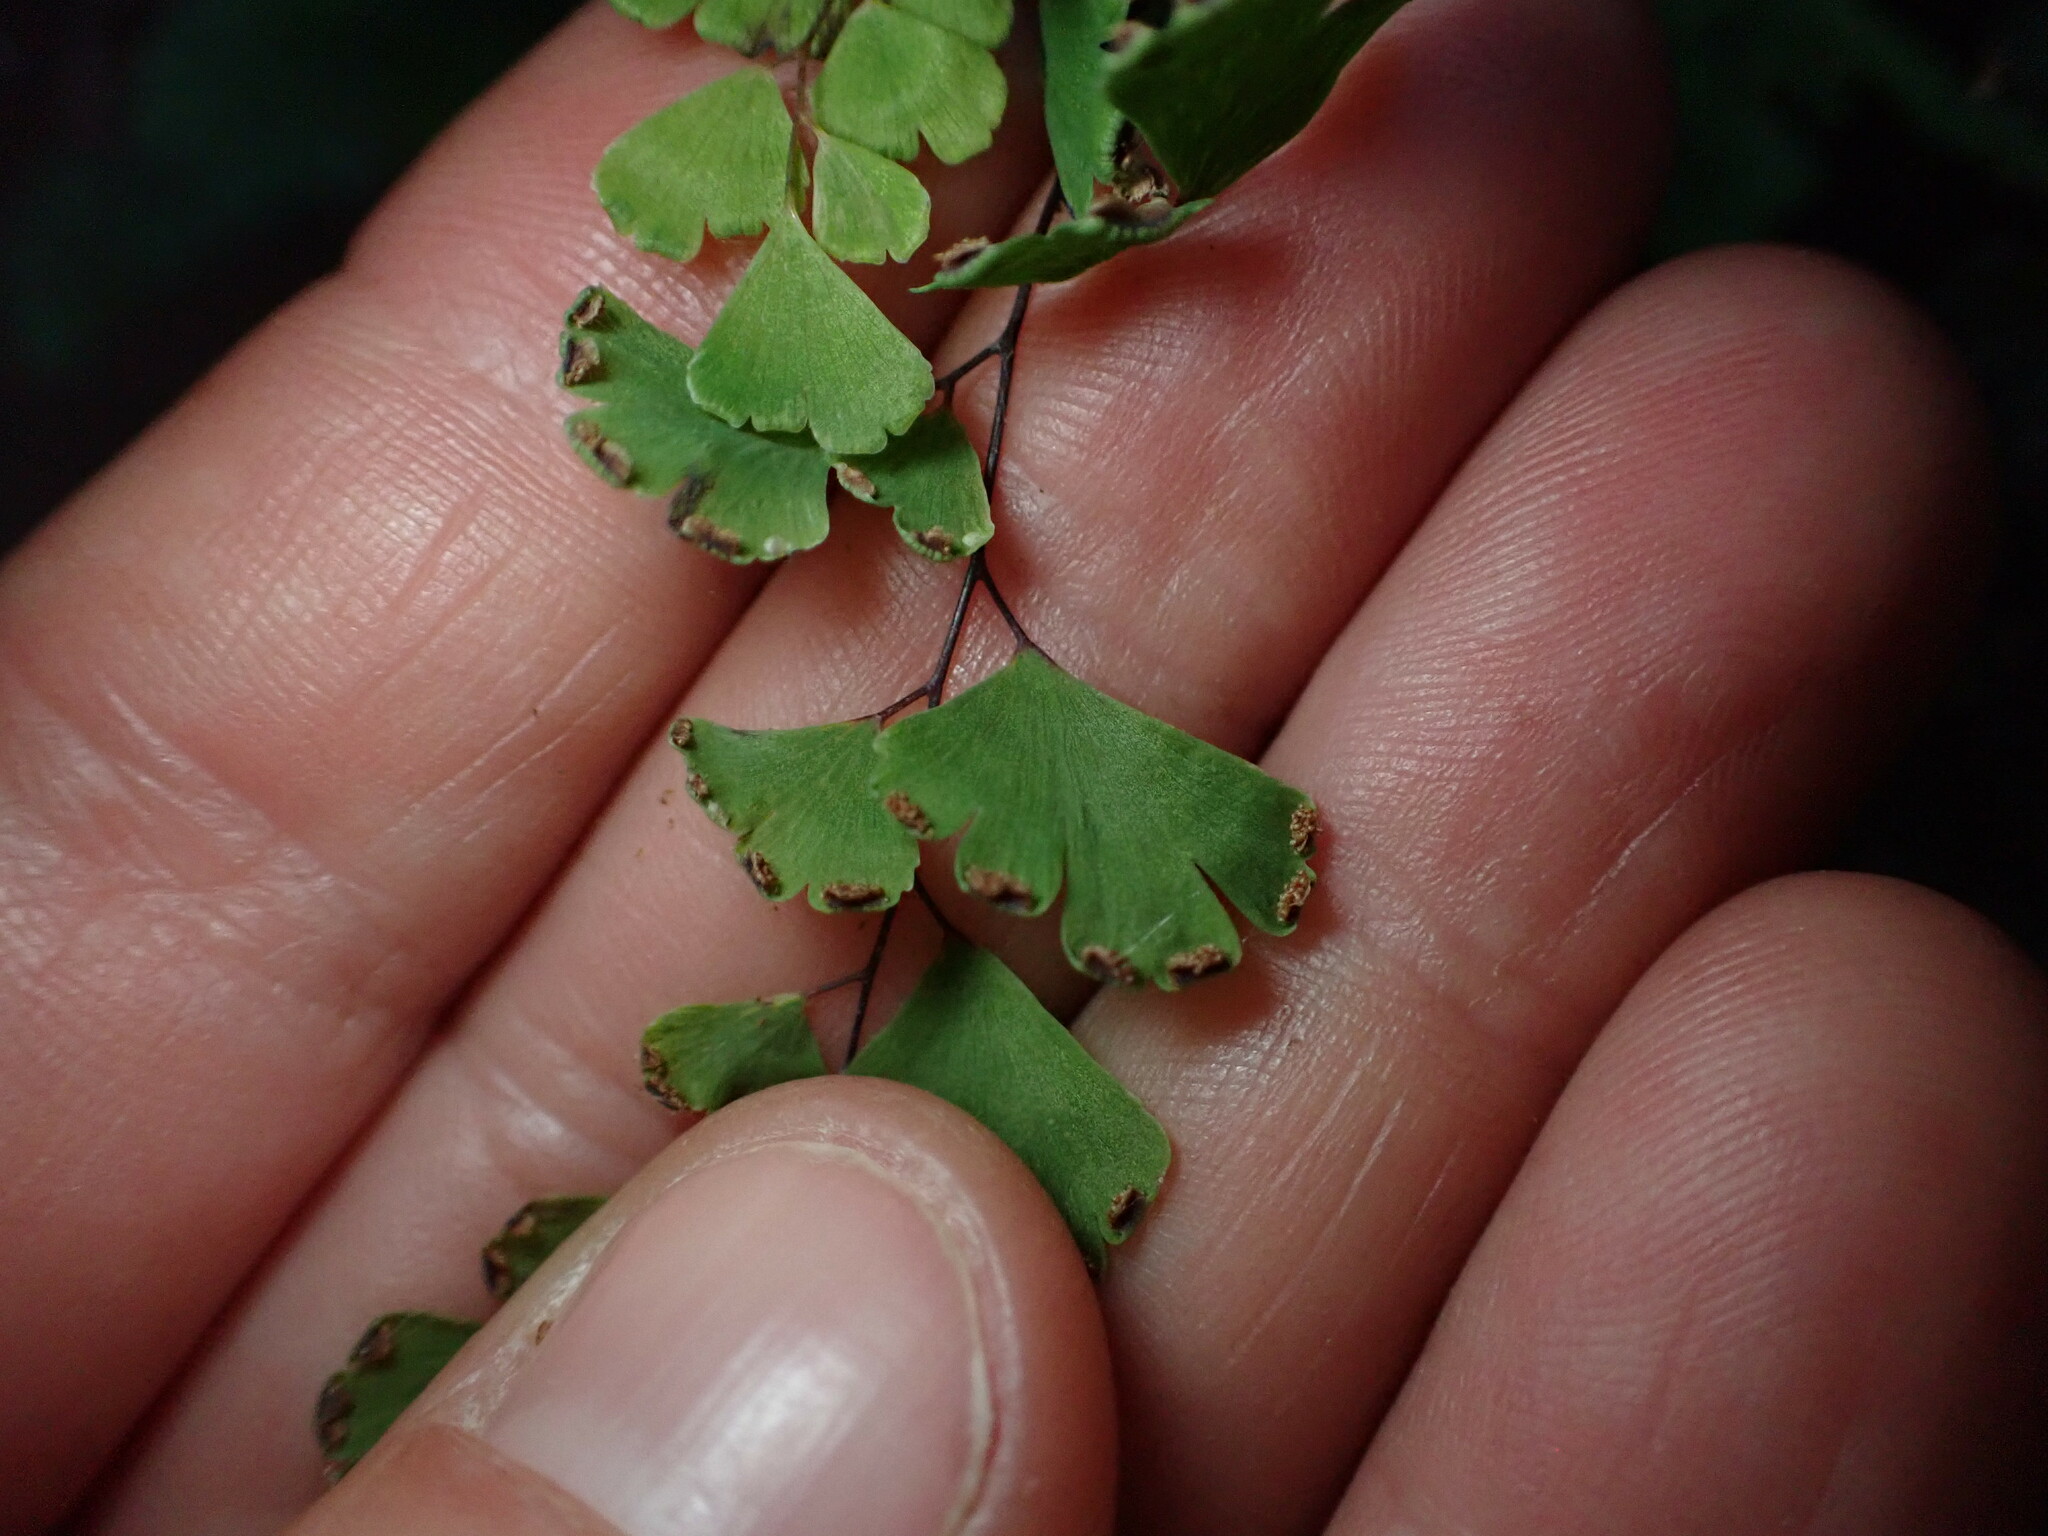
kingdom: Plantae
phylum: Tracheophyta
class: Polypodiopsida
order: Polypodiales
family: Pteridaceae
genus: Adiantum
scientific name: Adiantum capillus-veneris
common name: Maidenhair fern
